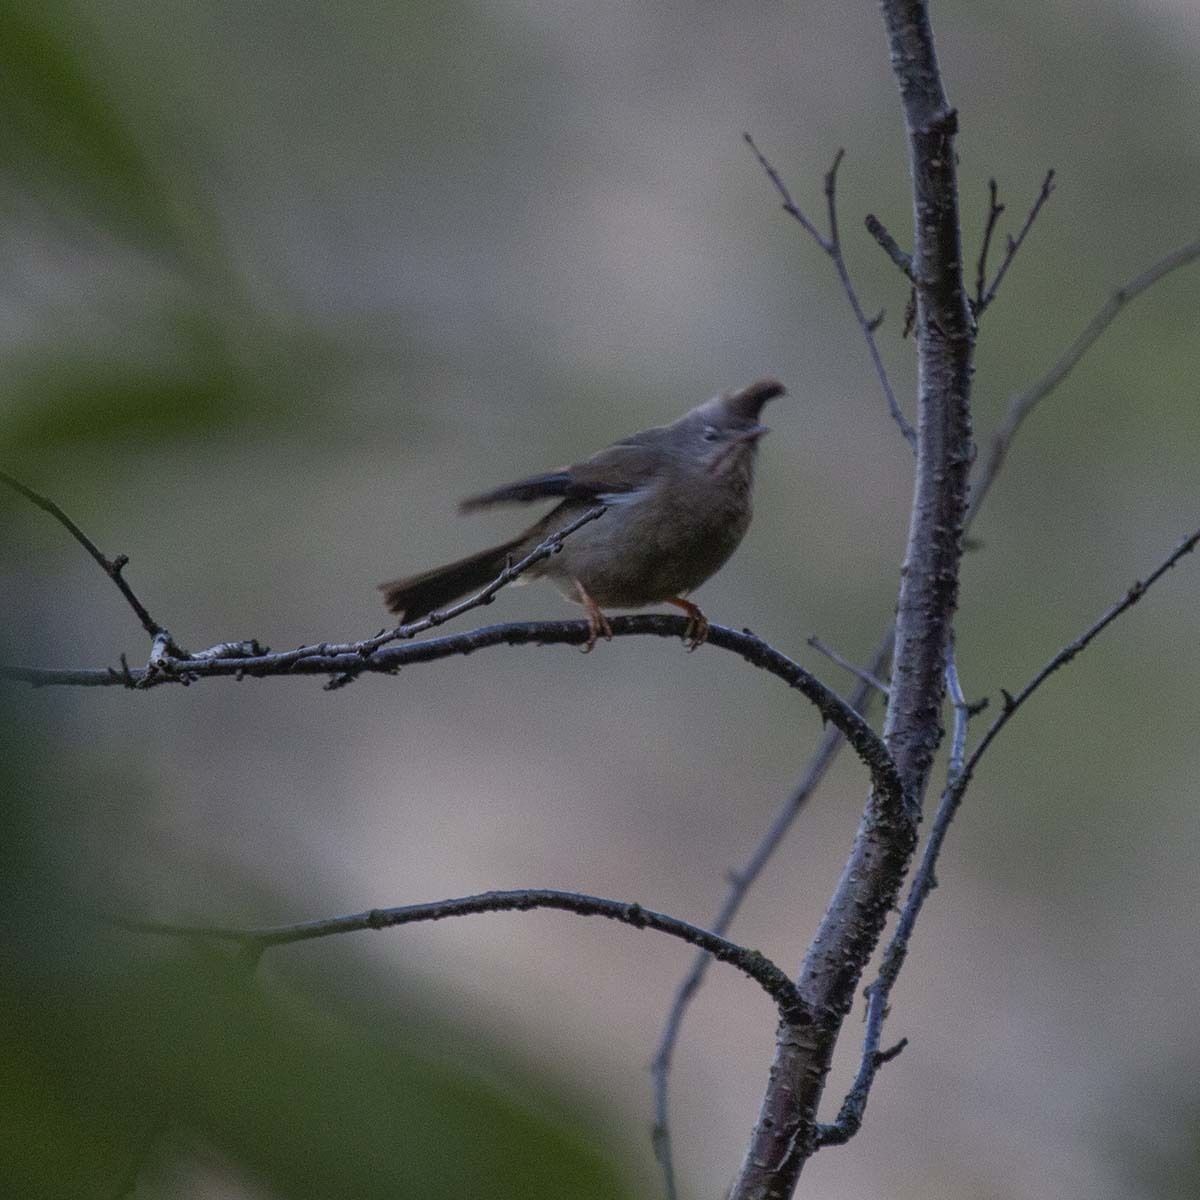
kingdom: Animalia
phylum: Chordata
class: Aves
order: Passeriformes
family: Zosteropidae
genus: Yuhina
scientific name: Yuhina gularis
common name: Stripe-throated yuhina
